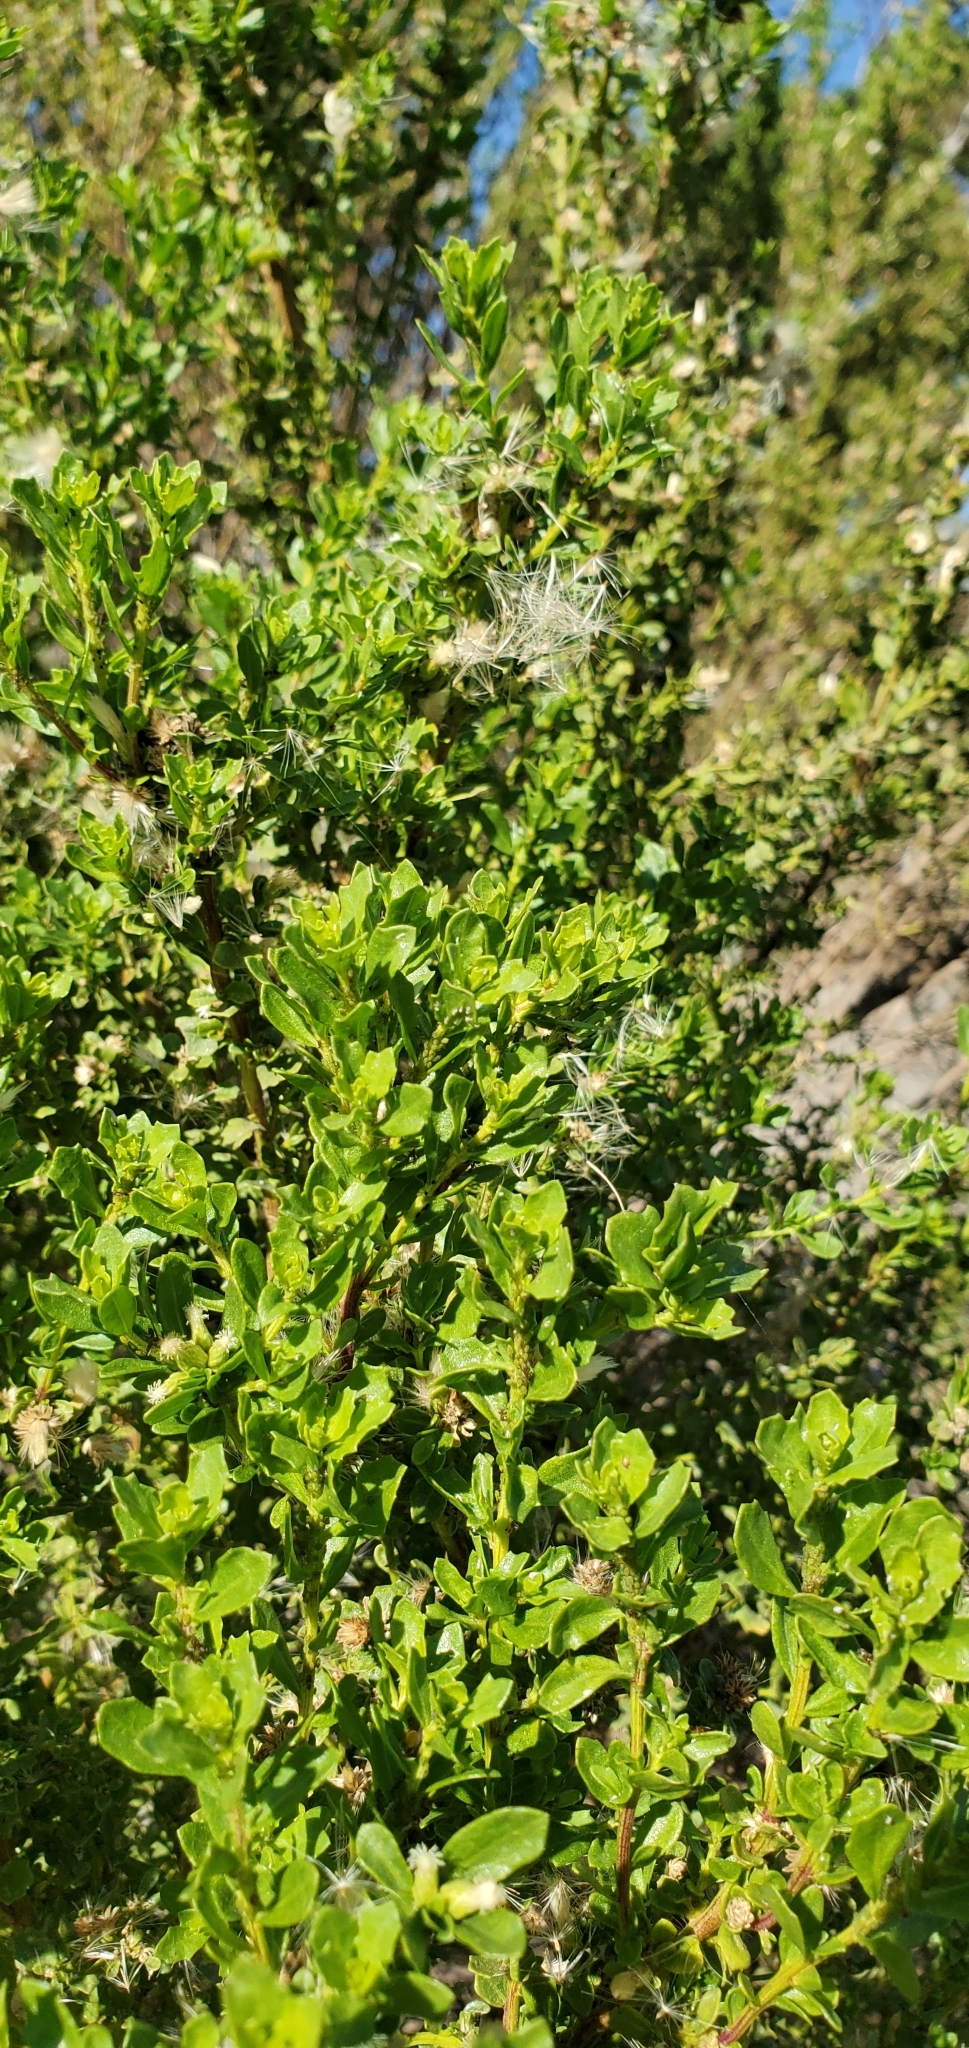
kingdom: Plantae
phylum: Tracheophyta
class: Magnoliopsida
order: Asterales
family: Asteraceae
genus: Baccharis
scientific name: Baccharis pilularis
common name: Coyotebrush
